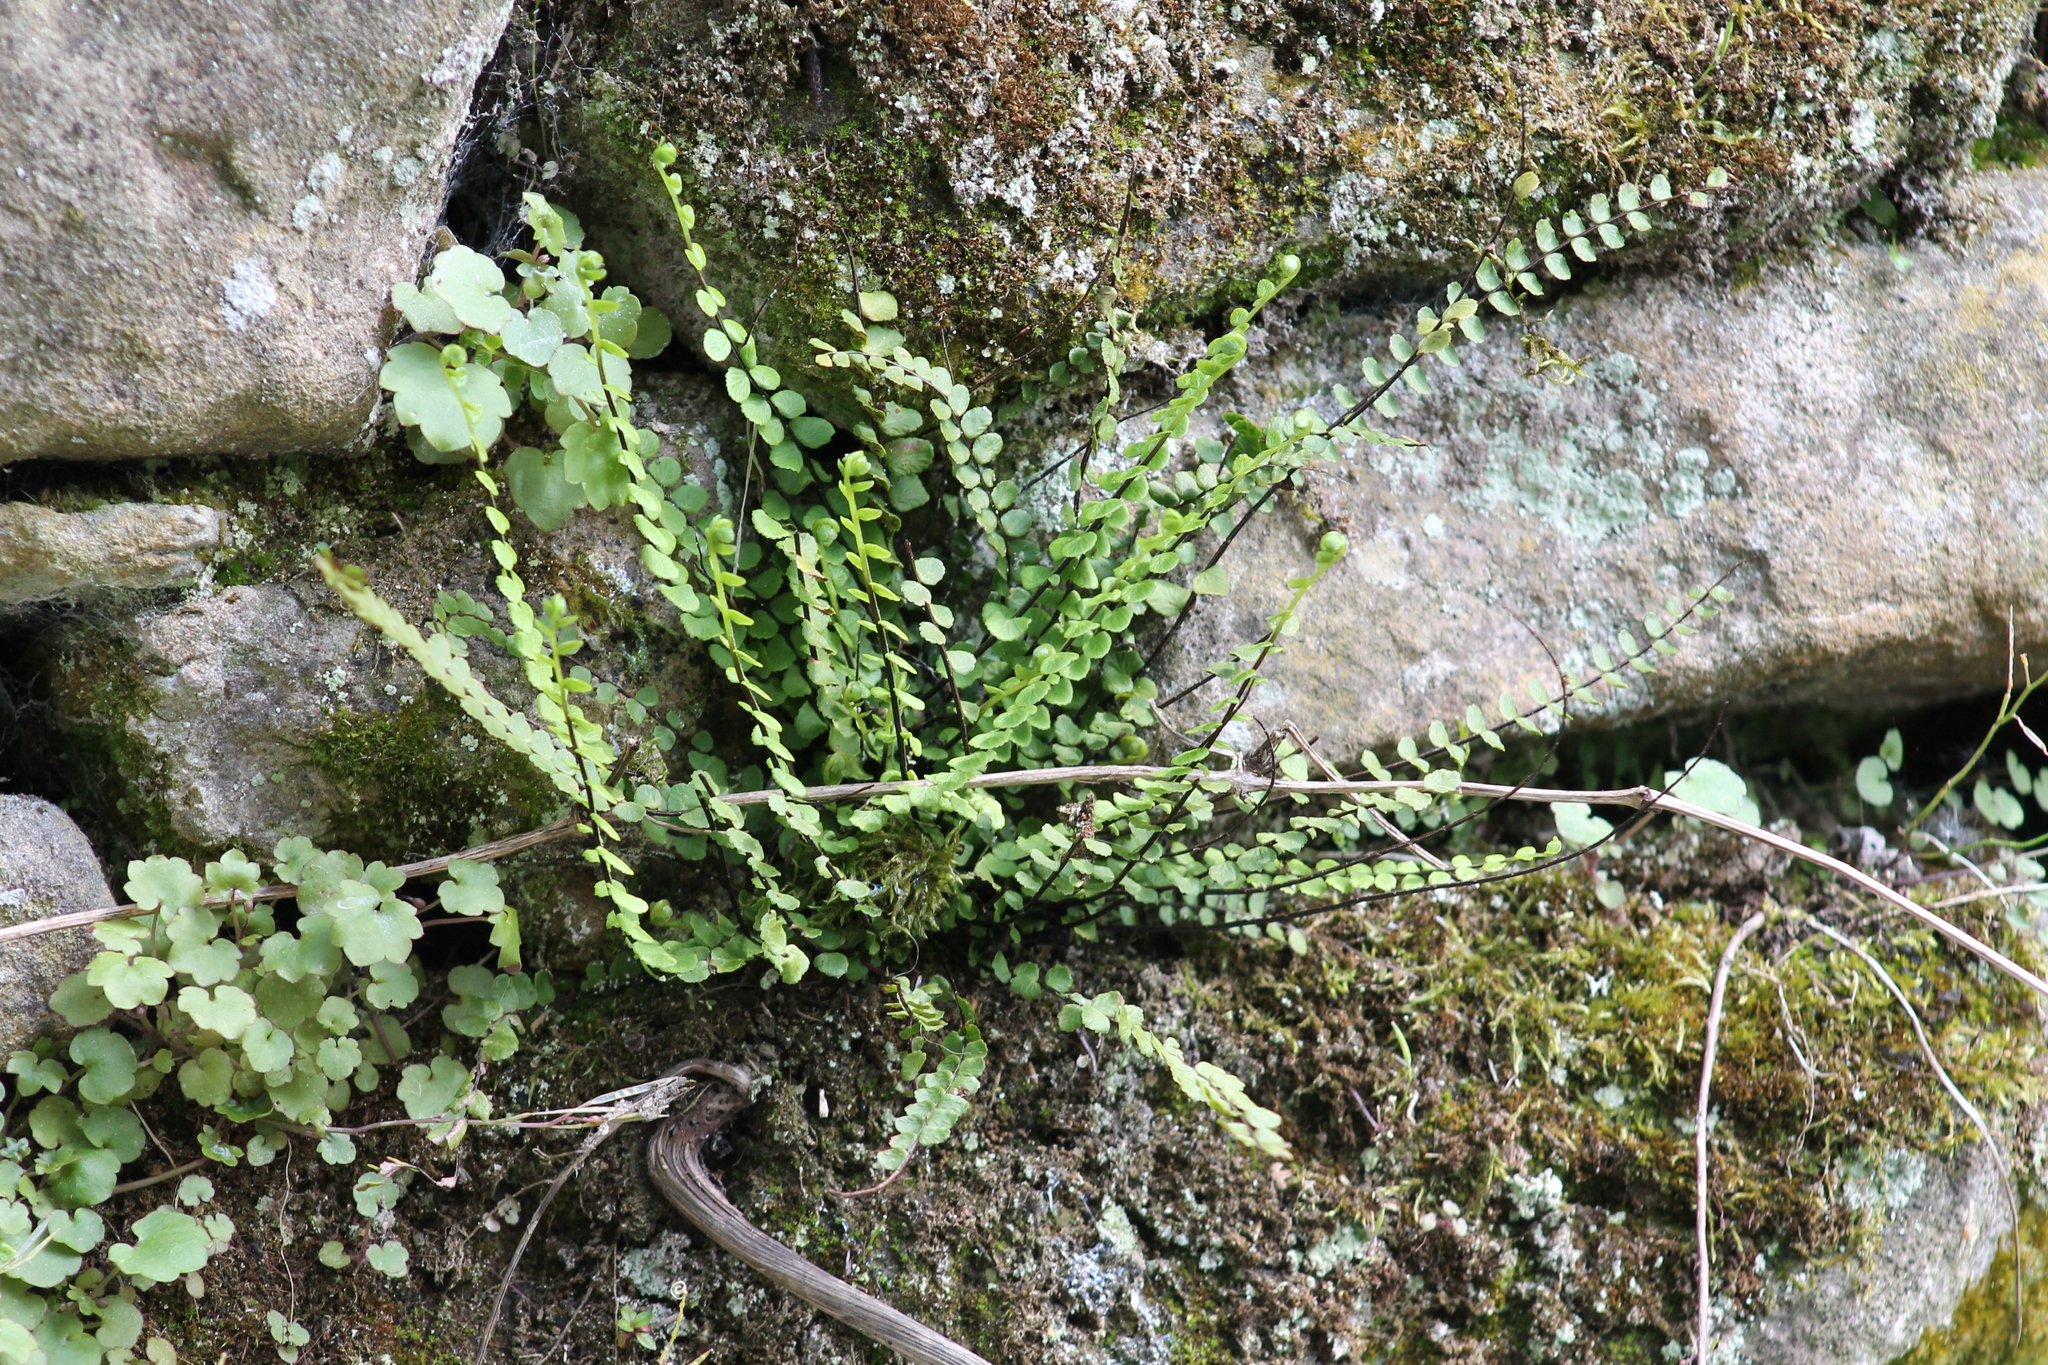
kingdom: Plantae
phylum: Tracheophyta
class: Polypodiopsida
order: Polypodiales
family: Aspleniaceae
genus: Asplenium
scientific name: Asplenium trichomanes
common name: Maidenhair spleenwort
